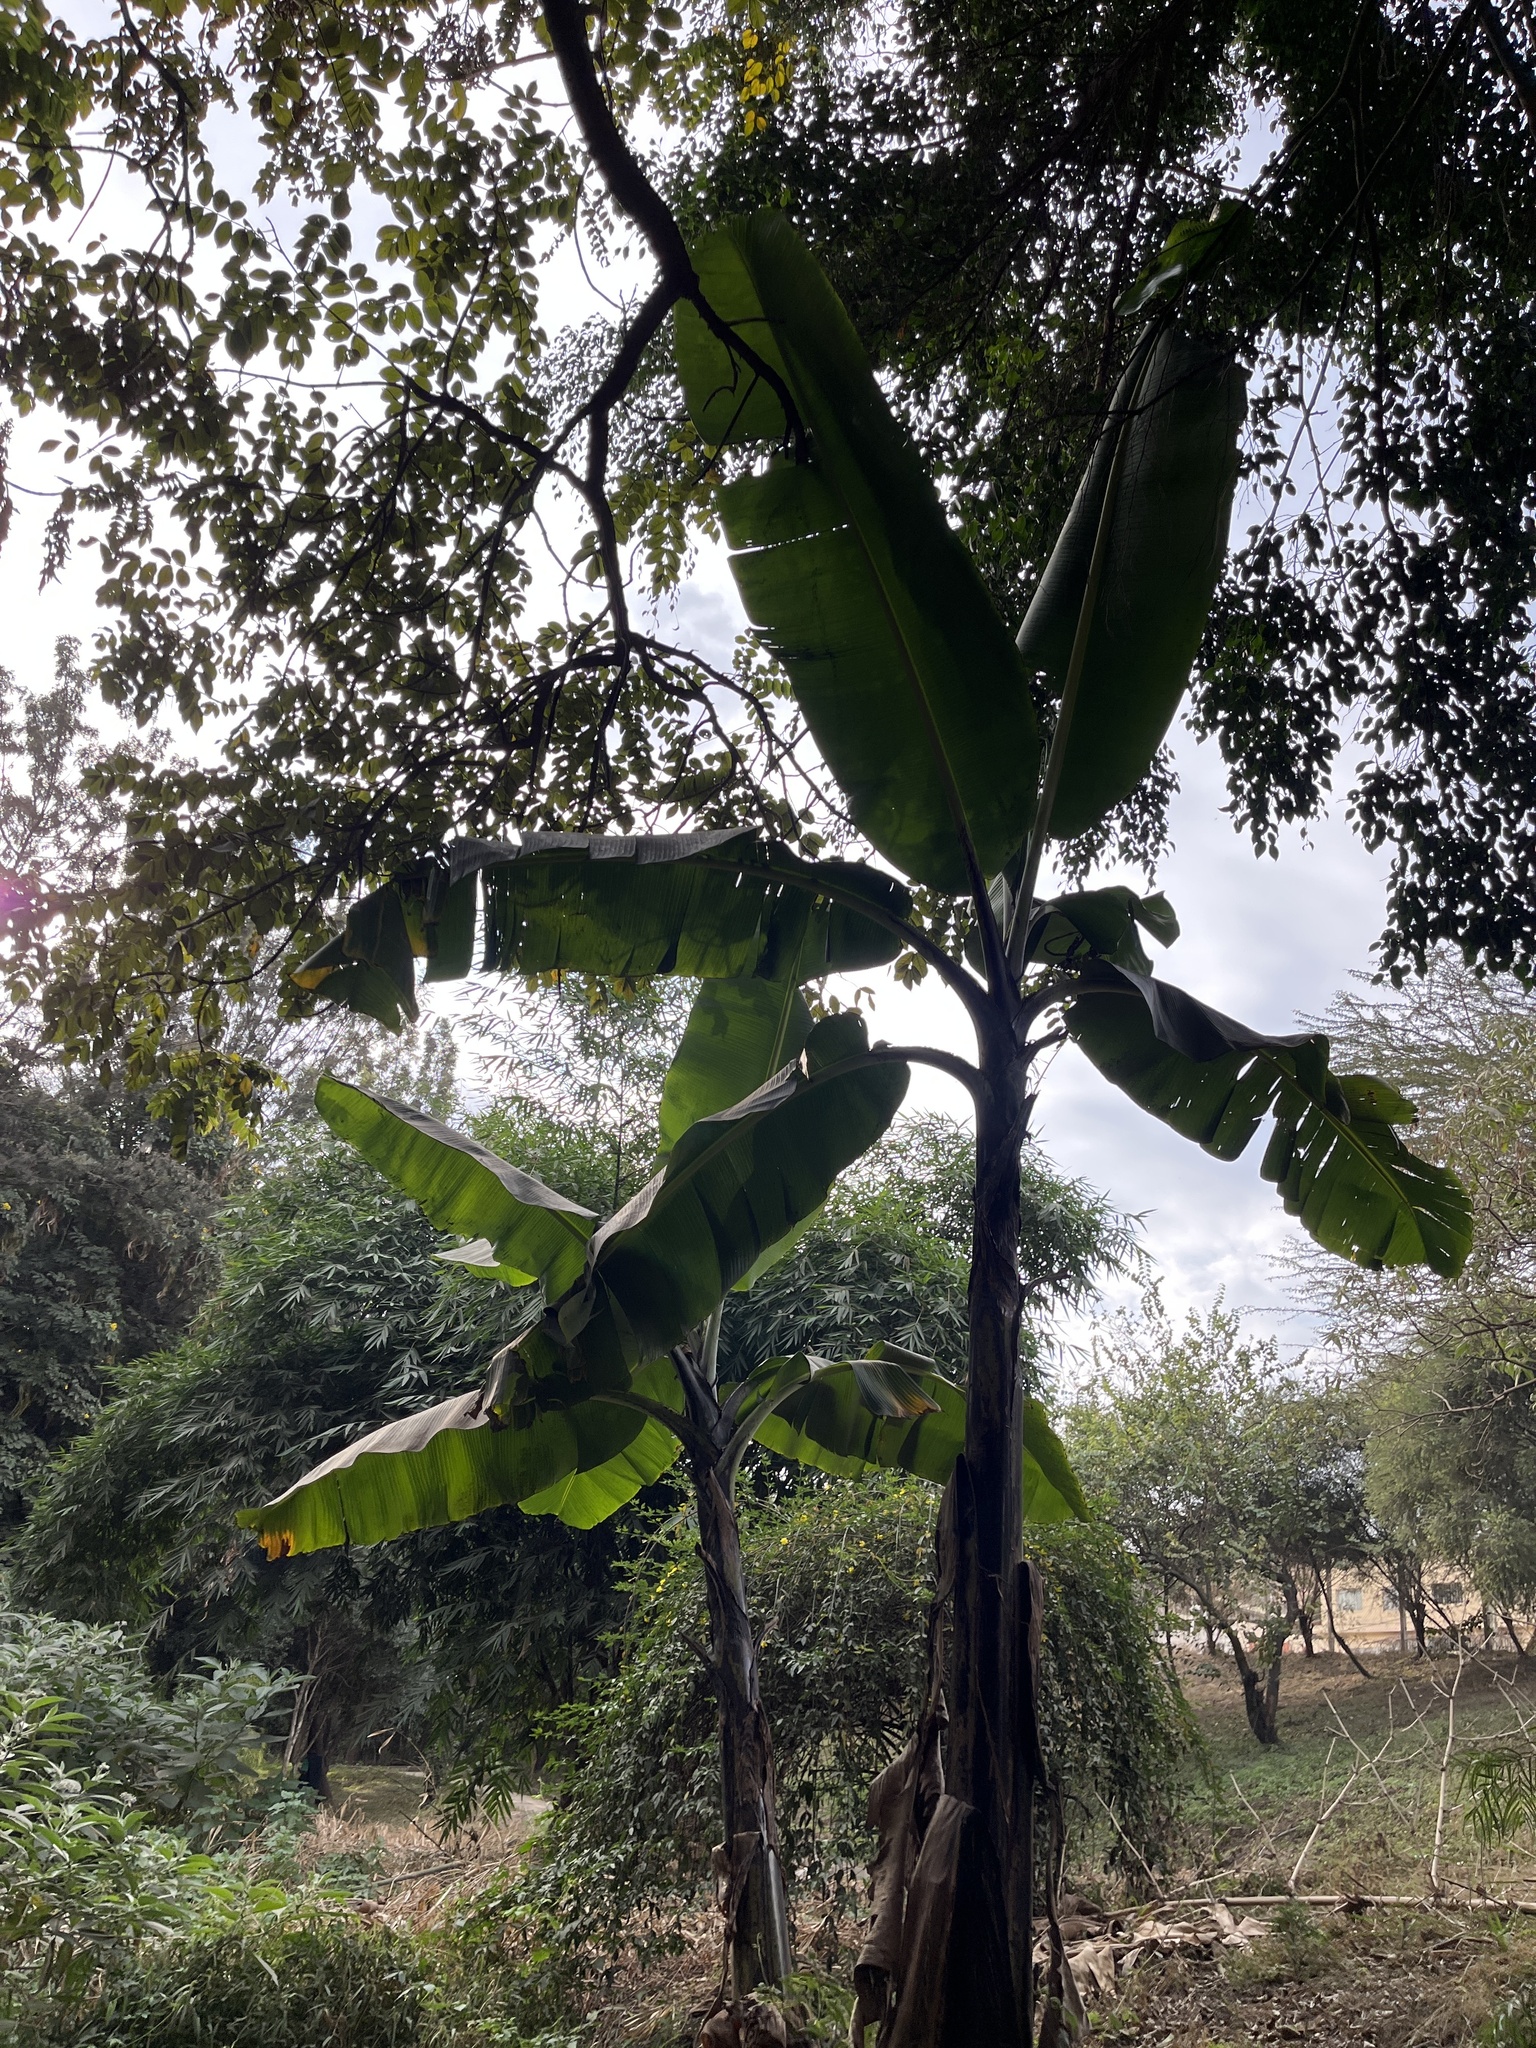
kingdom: Plantae
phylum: Tracheophyta
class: Liliopsida
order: Zingiberales
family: Musaceae
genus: Musa
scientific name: Musa acuminata
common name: Edible banana
